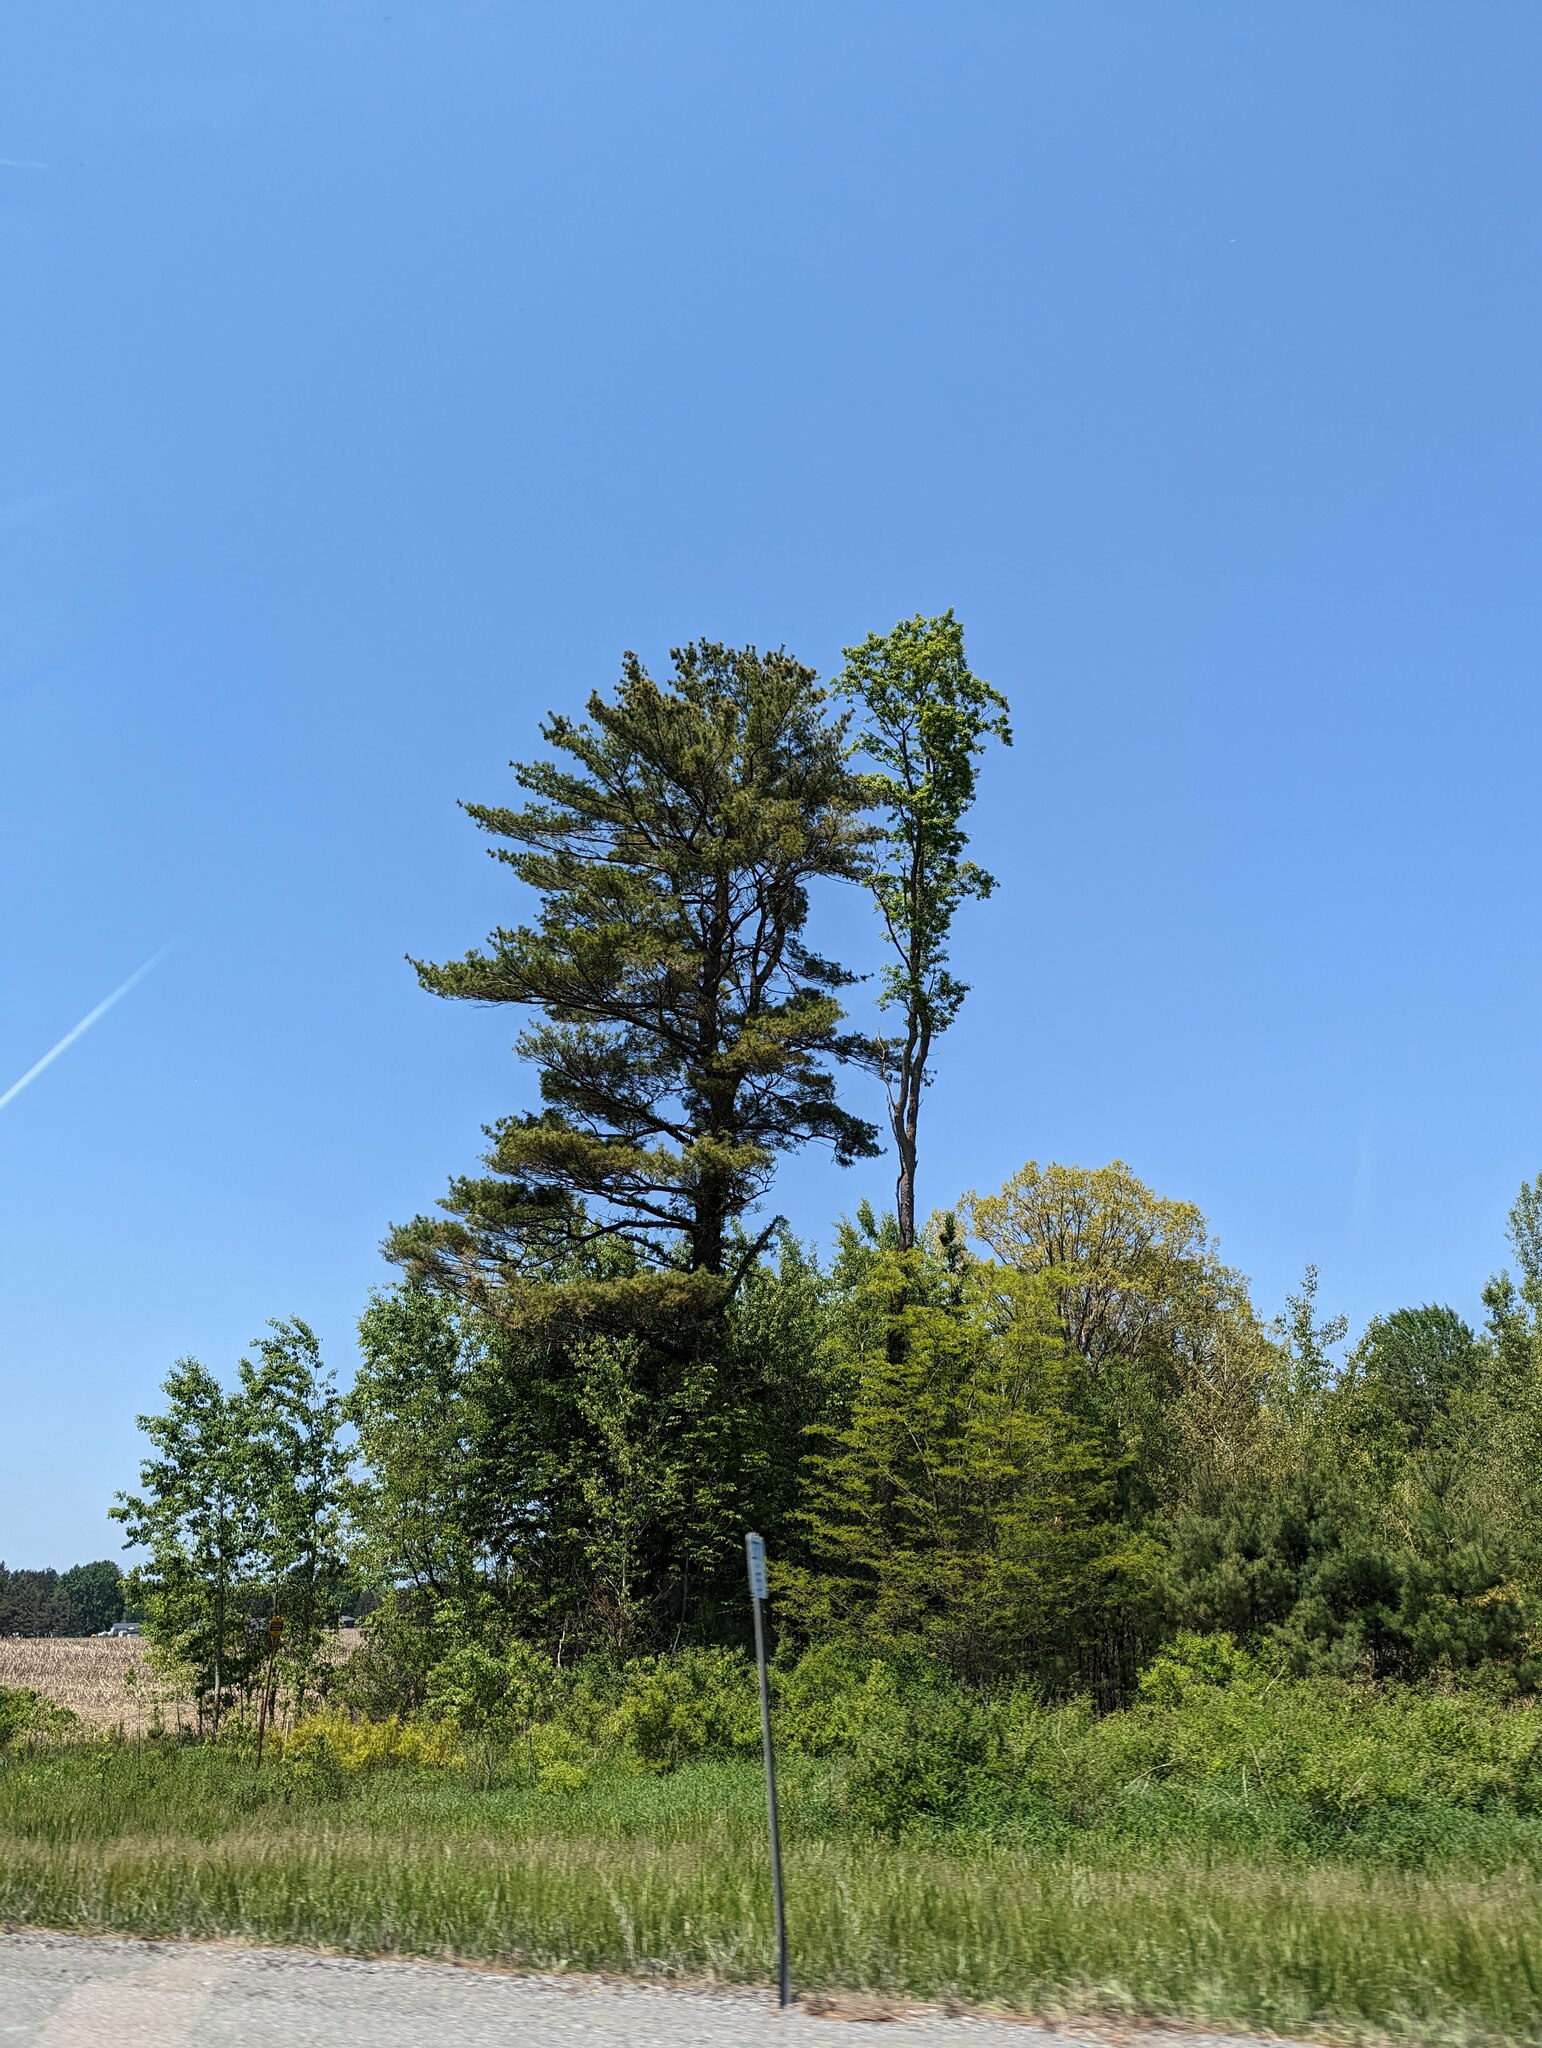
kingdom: Plantae
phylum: Tracheophyta
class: Pinopsida
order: Pinales
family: Pinaceae
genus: Pinus
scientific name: Pinus strobus
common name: Weymouth pine
